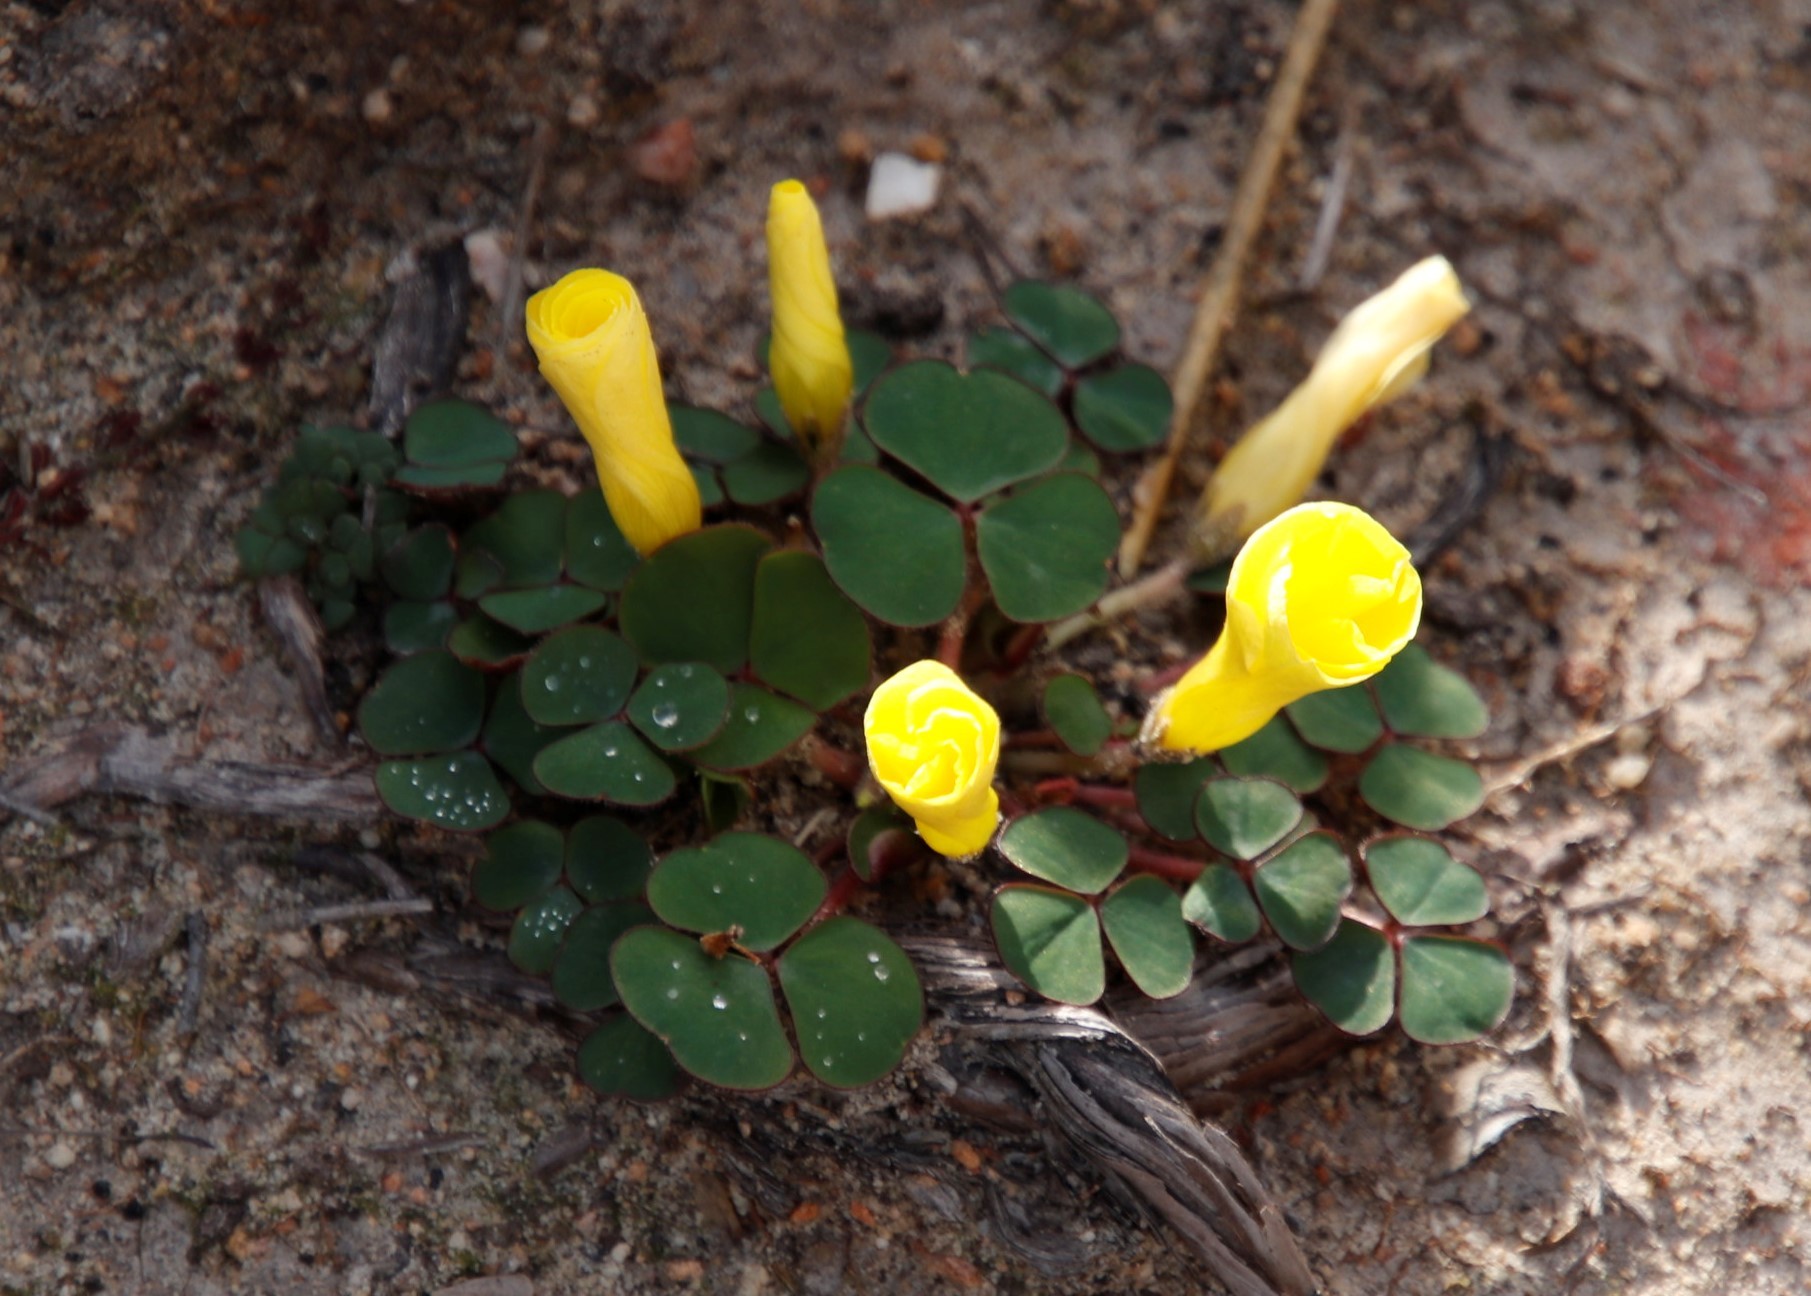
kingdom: Plantae
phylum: Tracheophyta
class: Magnoliopsida
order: Oxalidales
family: Oxalidaceae
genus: Oxalis
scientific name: Oxalis luteola
